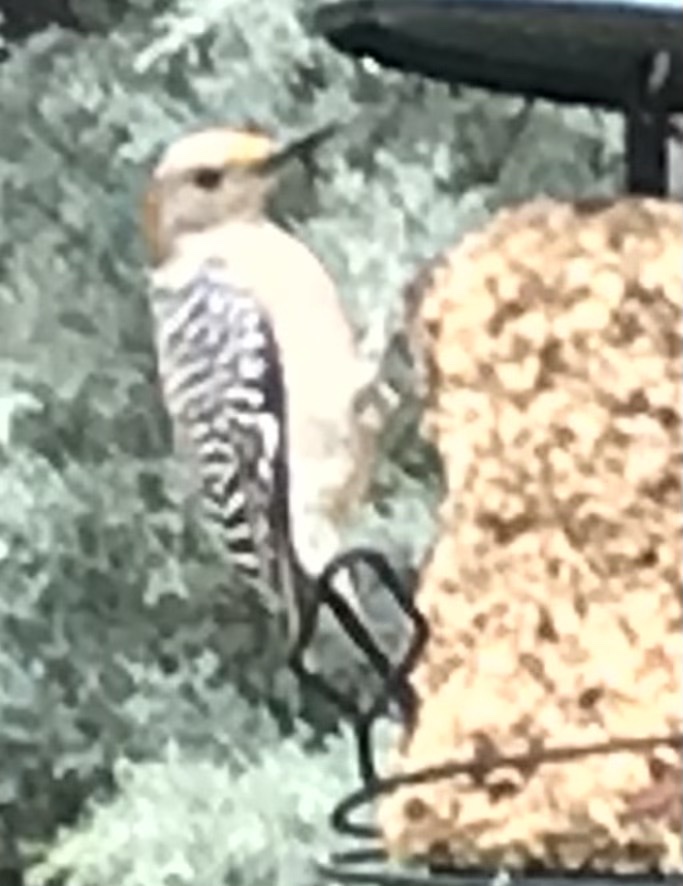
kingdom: Animalia
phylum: Chordata
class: Aves
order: Piciformes
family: Picidae
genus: Melanerpes
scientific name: Melanerpes aurifrons
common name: Golden-fronted woodpecker
